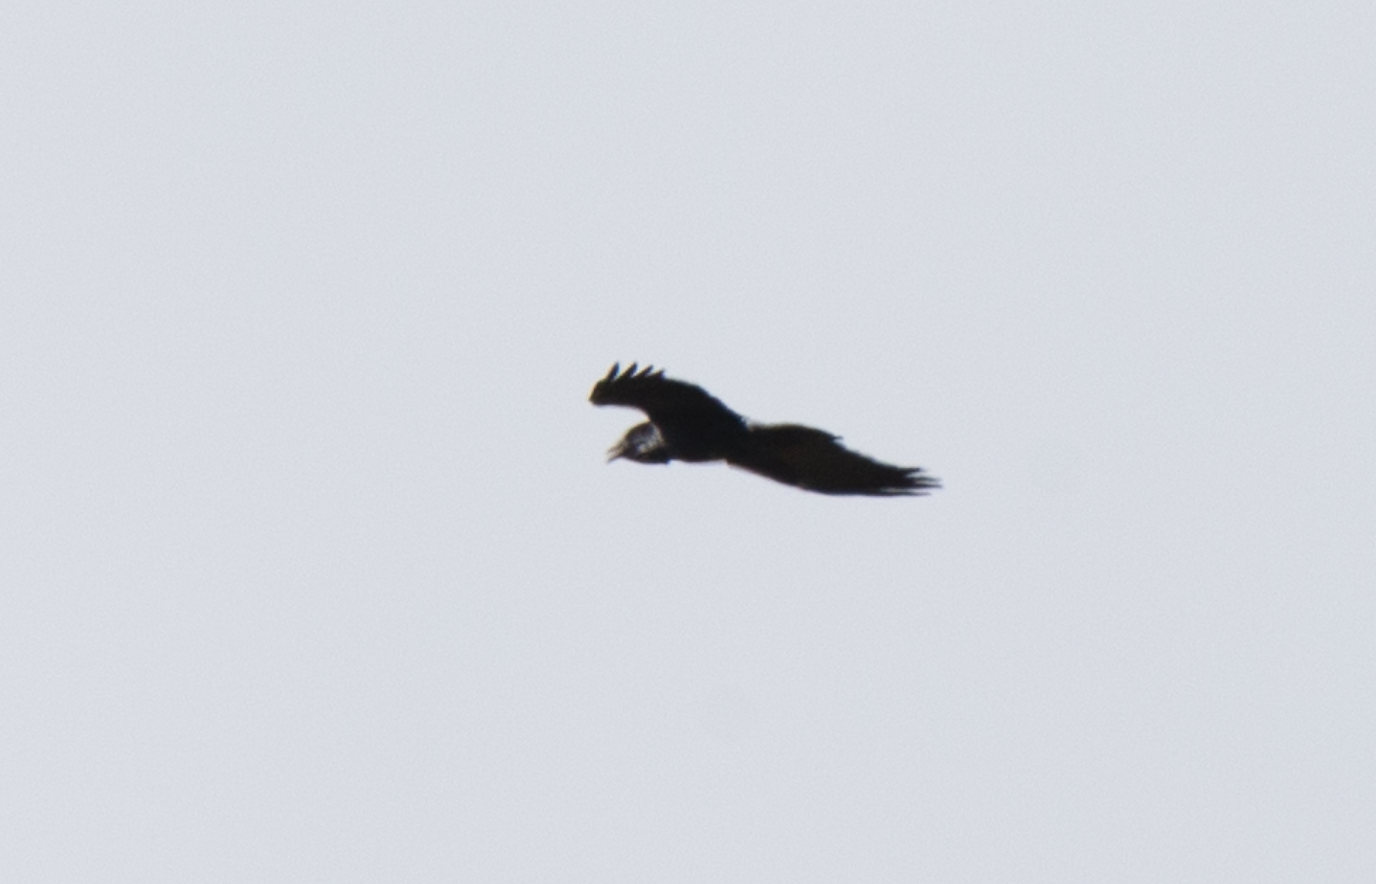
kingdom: Animalia
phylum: Chordata
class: Aves
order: Passeriformes
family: Corvidae
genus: Corvus
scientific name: Corvus corax
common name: Common raven
